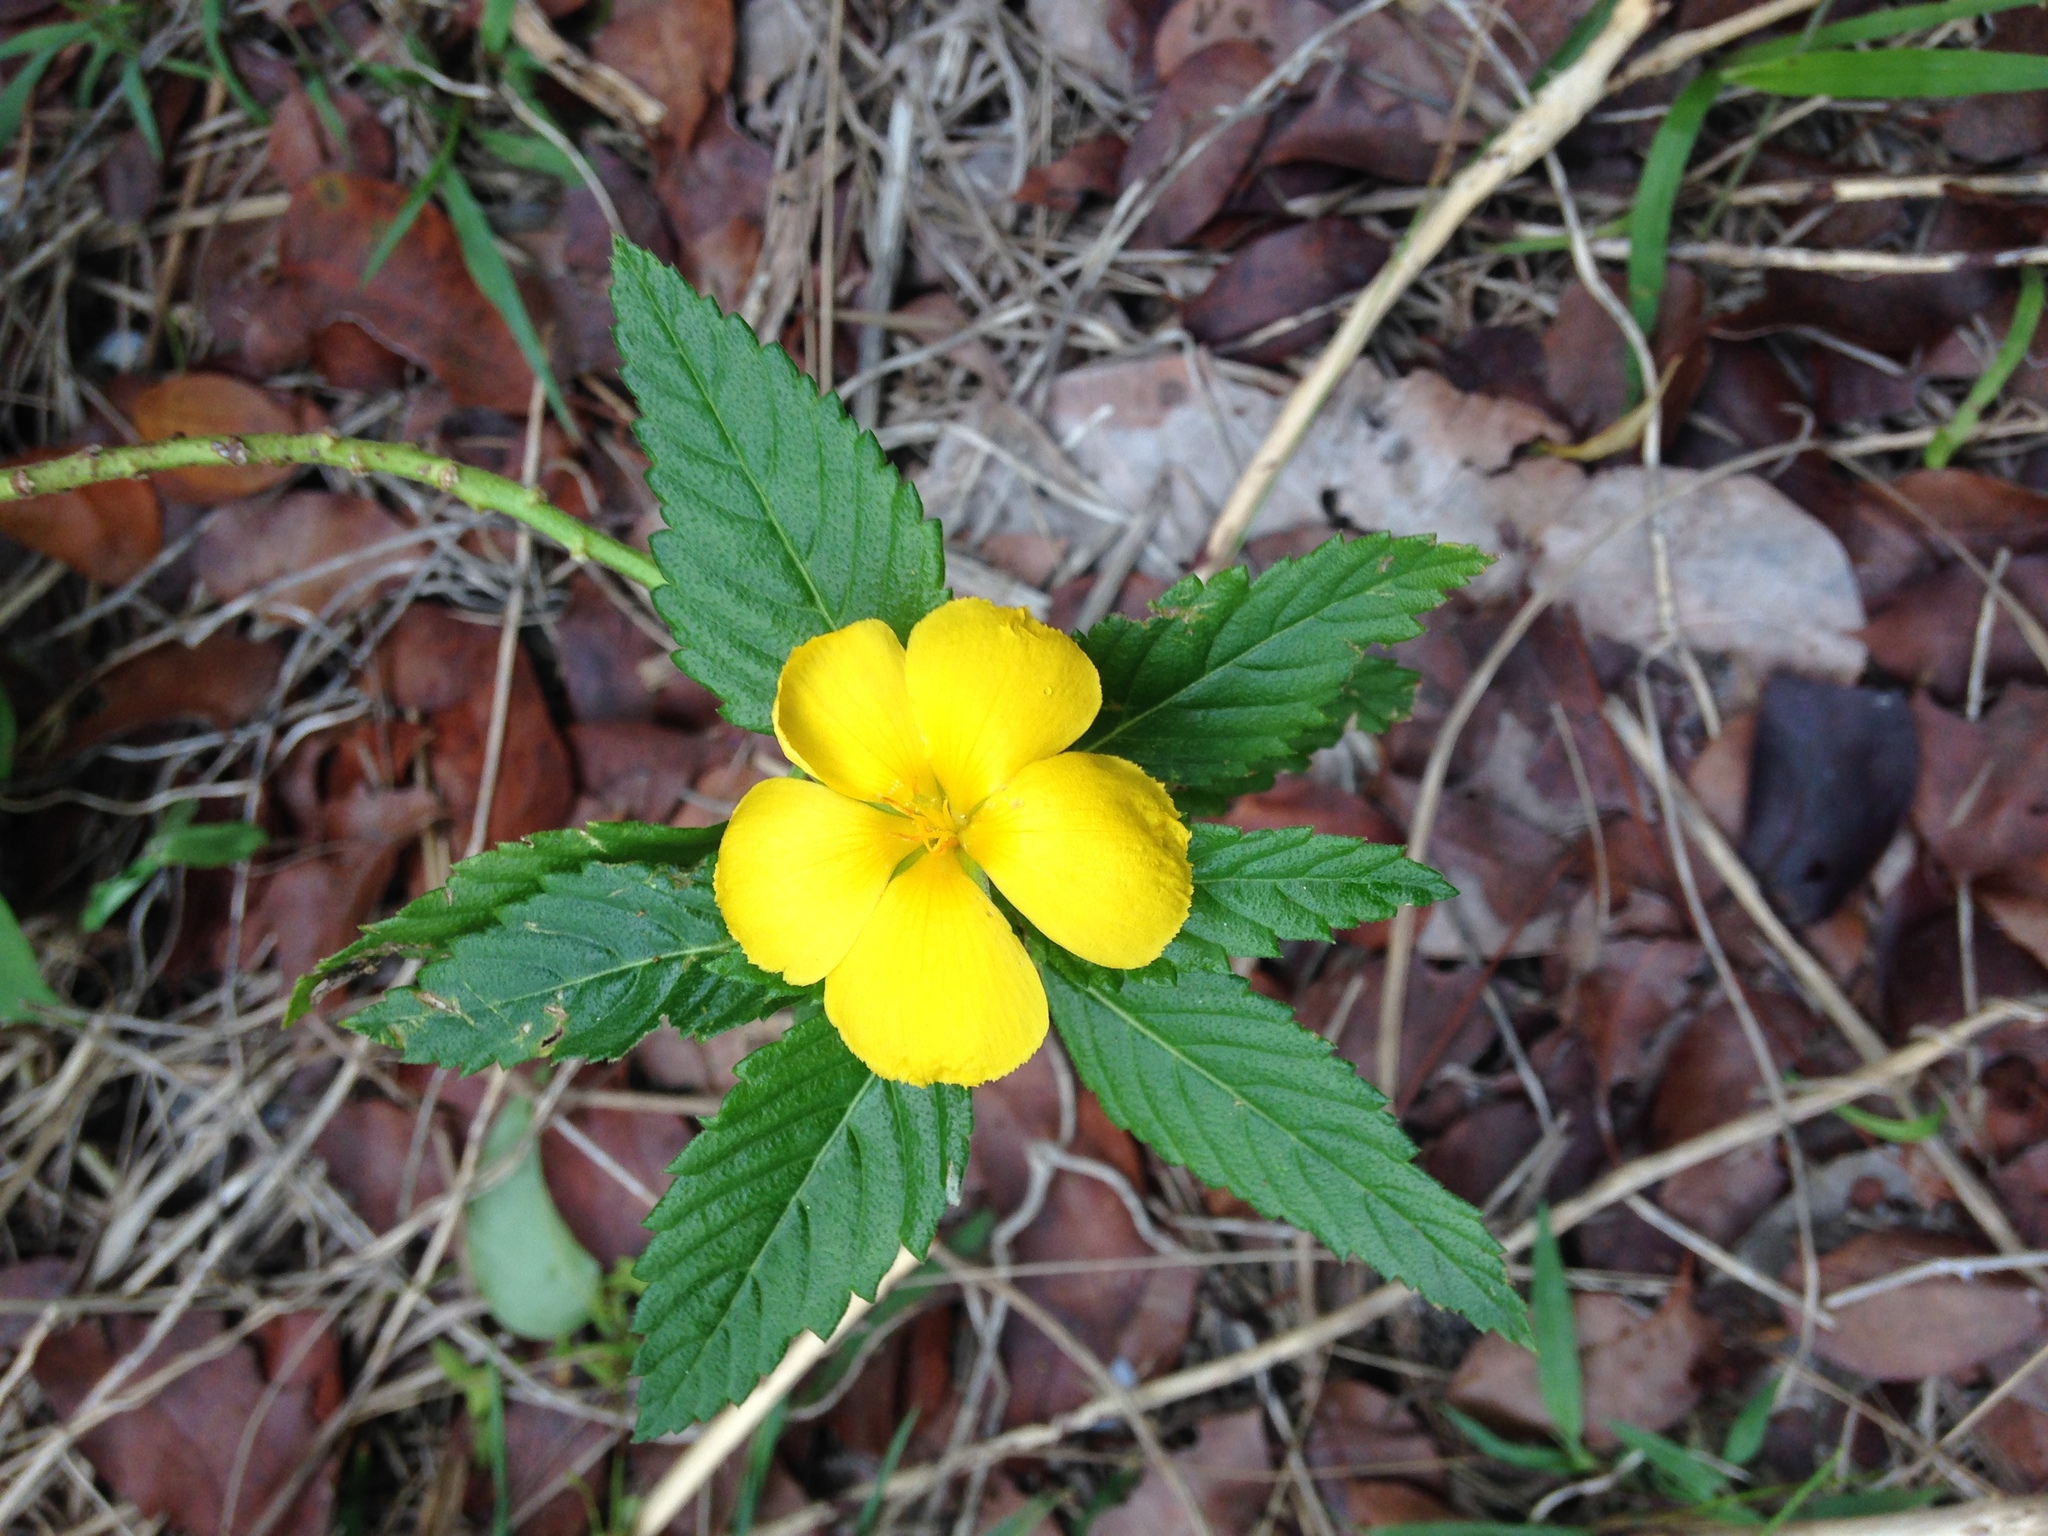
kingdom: Plantae
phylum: Tracheophyta
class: Magnoliopsida
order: Malpighiales
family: Turneraceae
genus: Turnera
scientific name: Turnera ulmifolia
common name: Ramgoat dashalong
